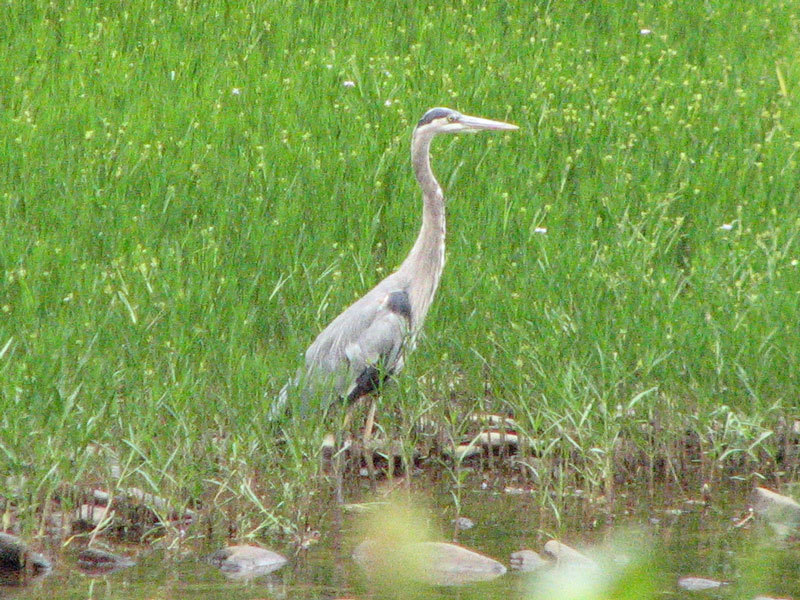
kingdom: Animalia
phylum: Chordata
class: Aves
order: Pelecaniformes
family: Ardeidae
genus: Ardea
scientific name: Ardea herodias
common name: Great blue heron
